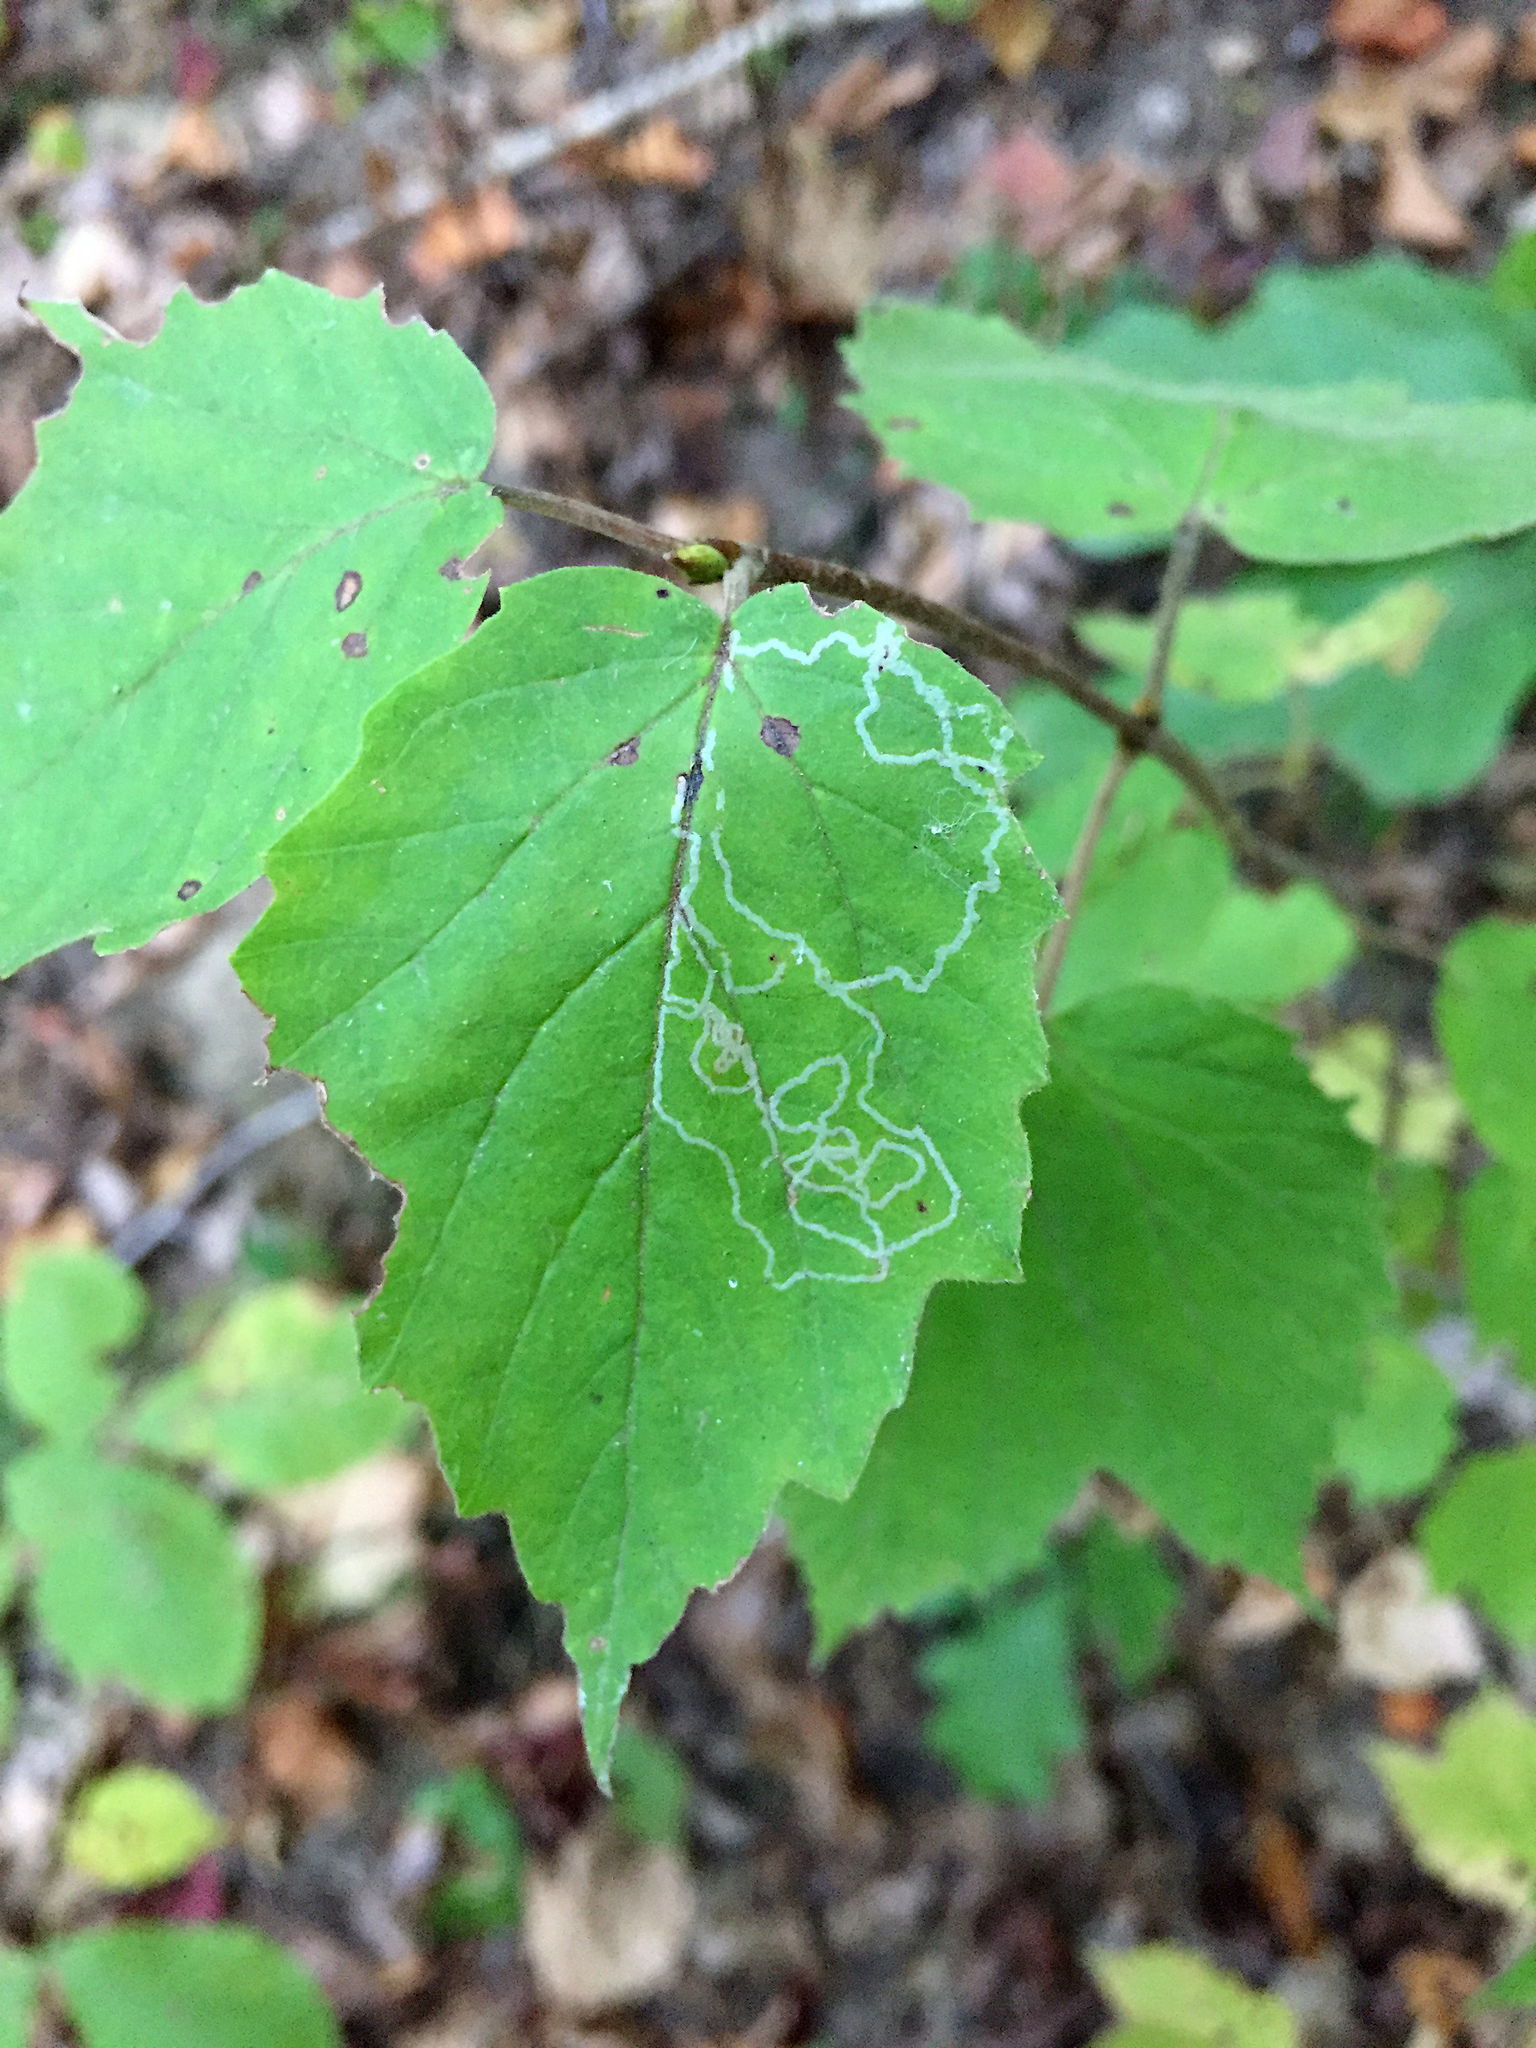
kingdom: Animalia
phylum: Arthropoda
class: Insecta
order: Lepidoptera
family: Gracillariidae
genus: Marmara
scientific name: Marmara viburnella
